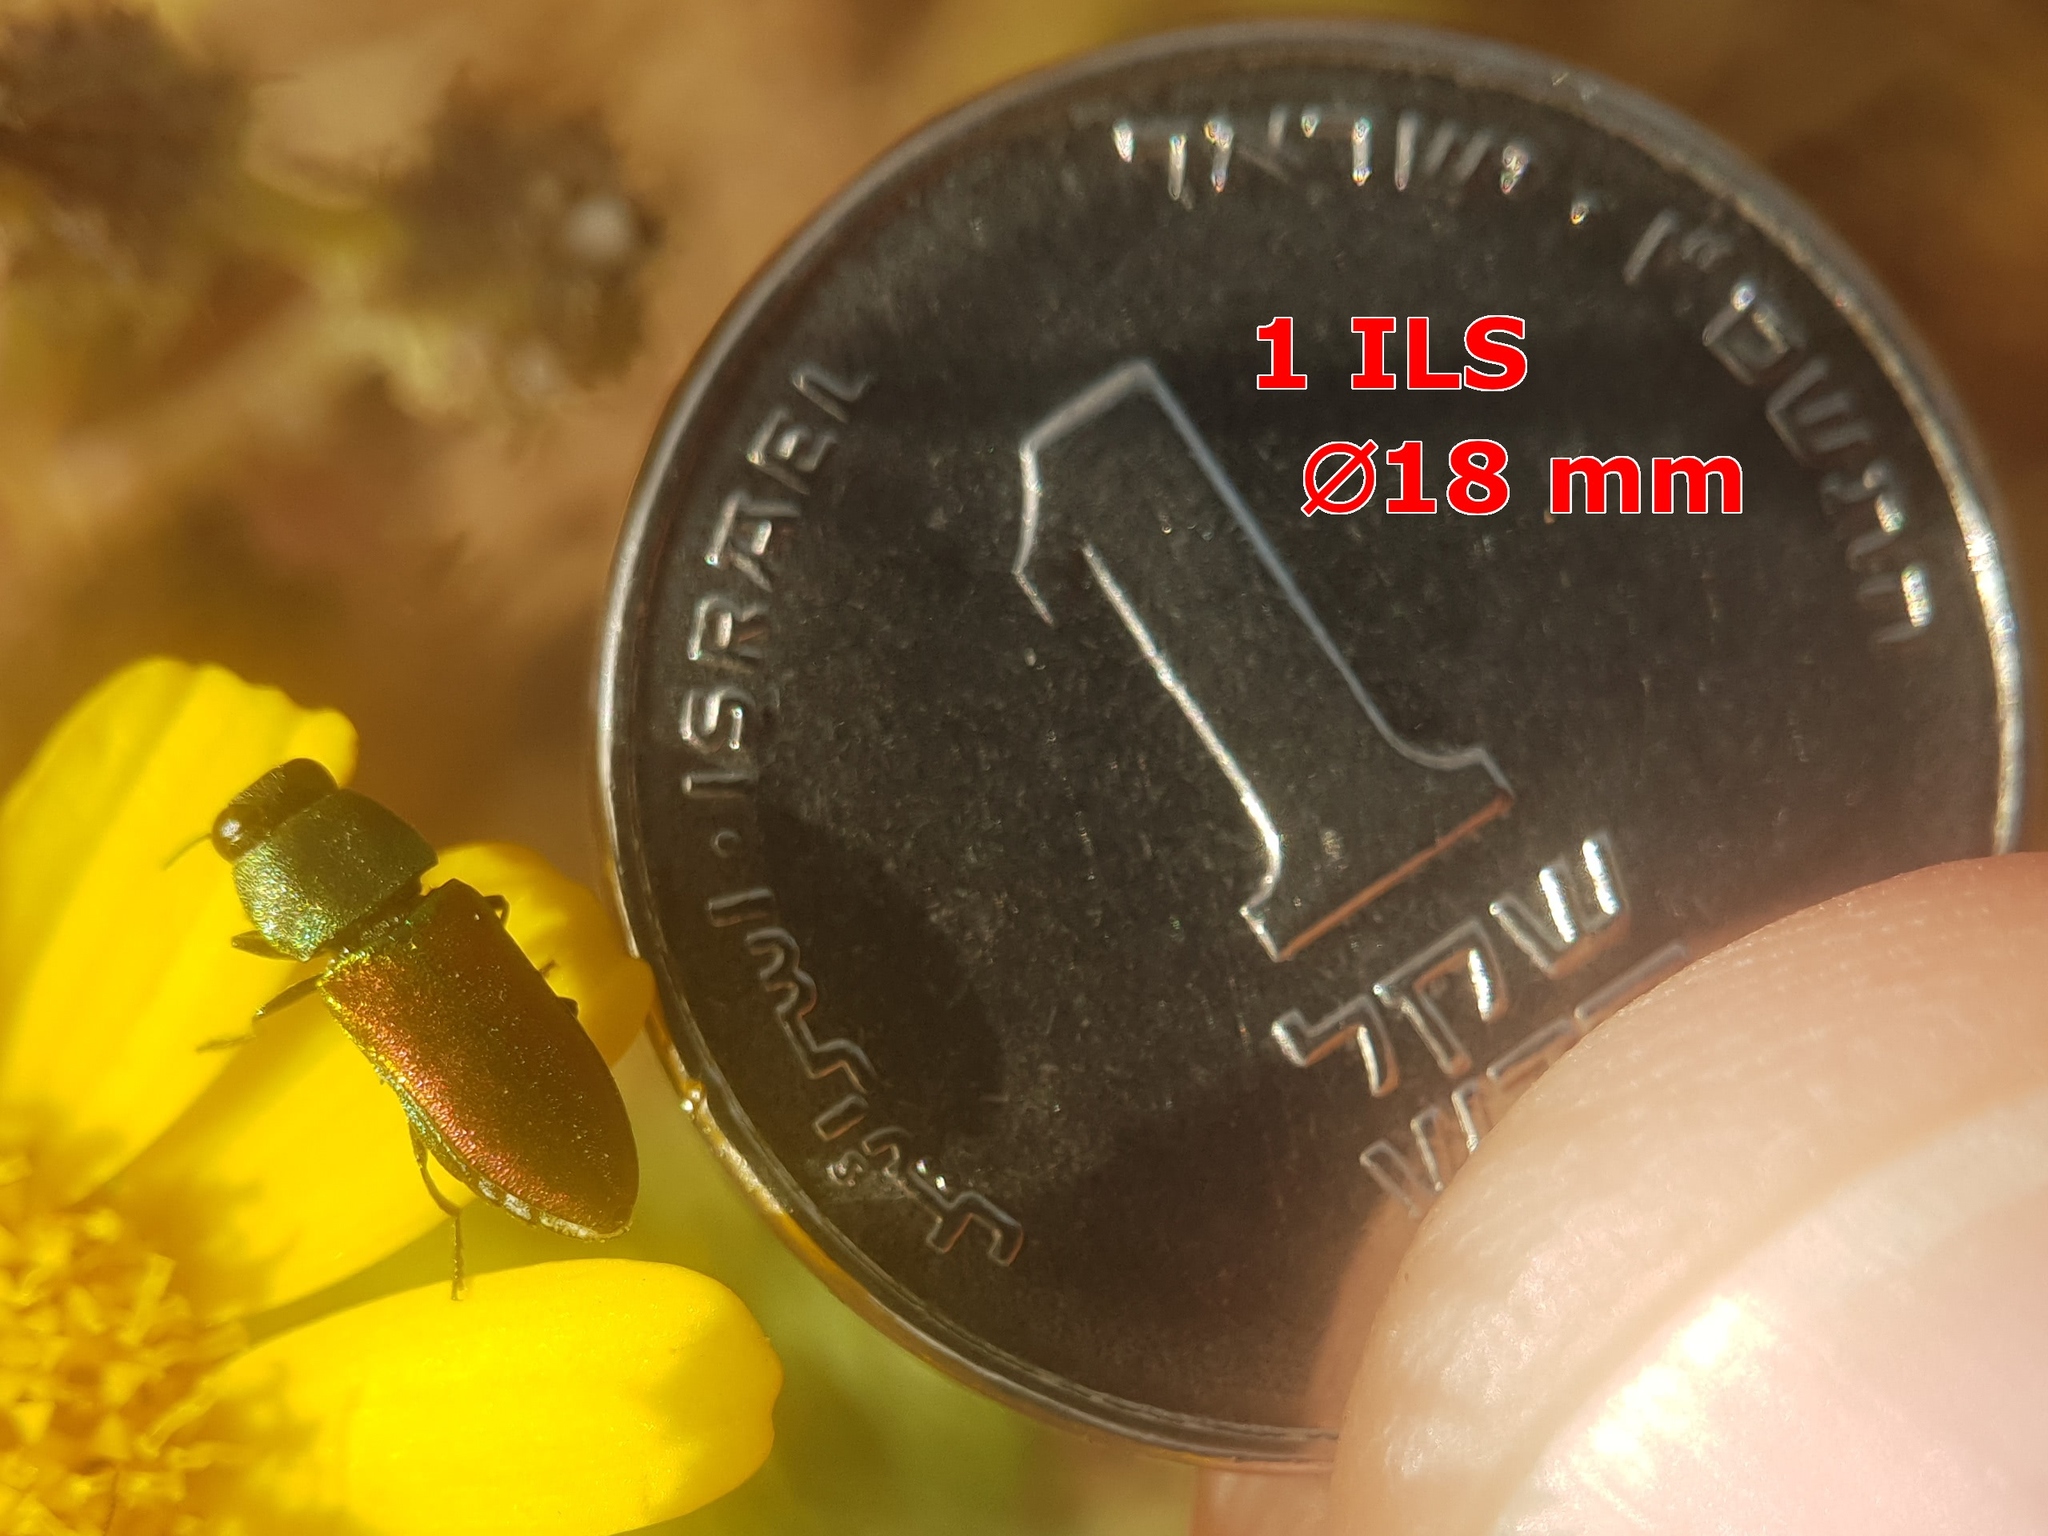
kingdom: Animalia
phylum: Arthropoda
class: Insecta
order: Coleoptera
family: Buprestidae
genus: Anthaxia
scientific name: Anthaxia cichorii
